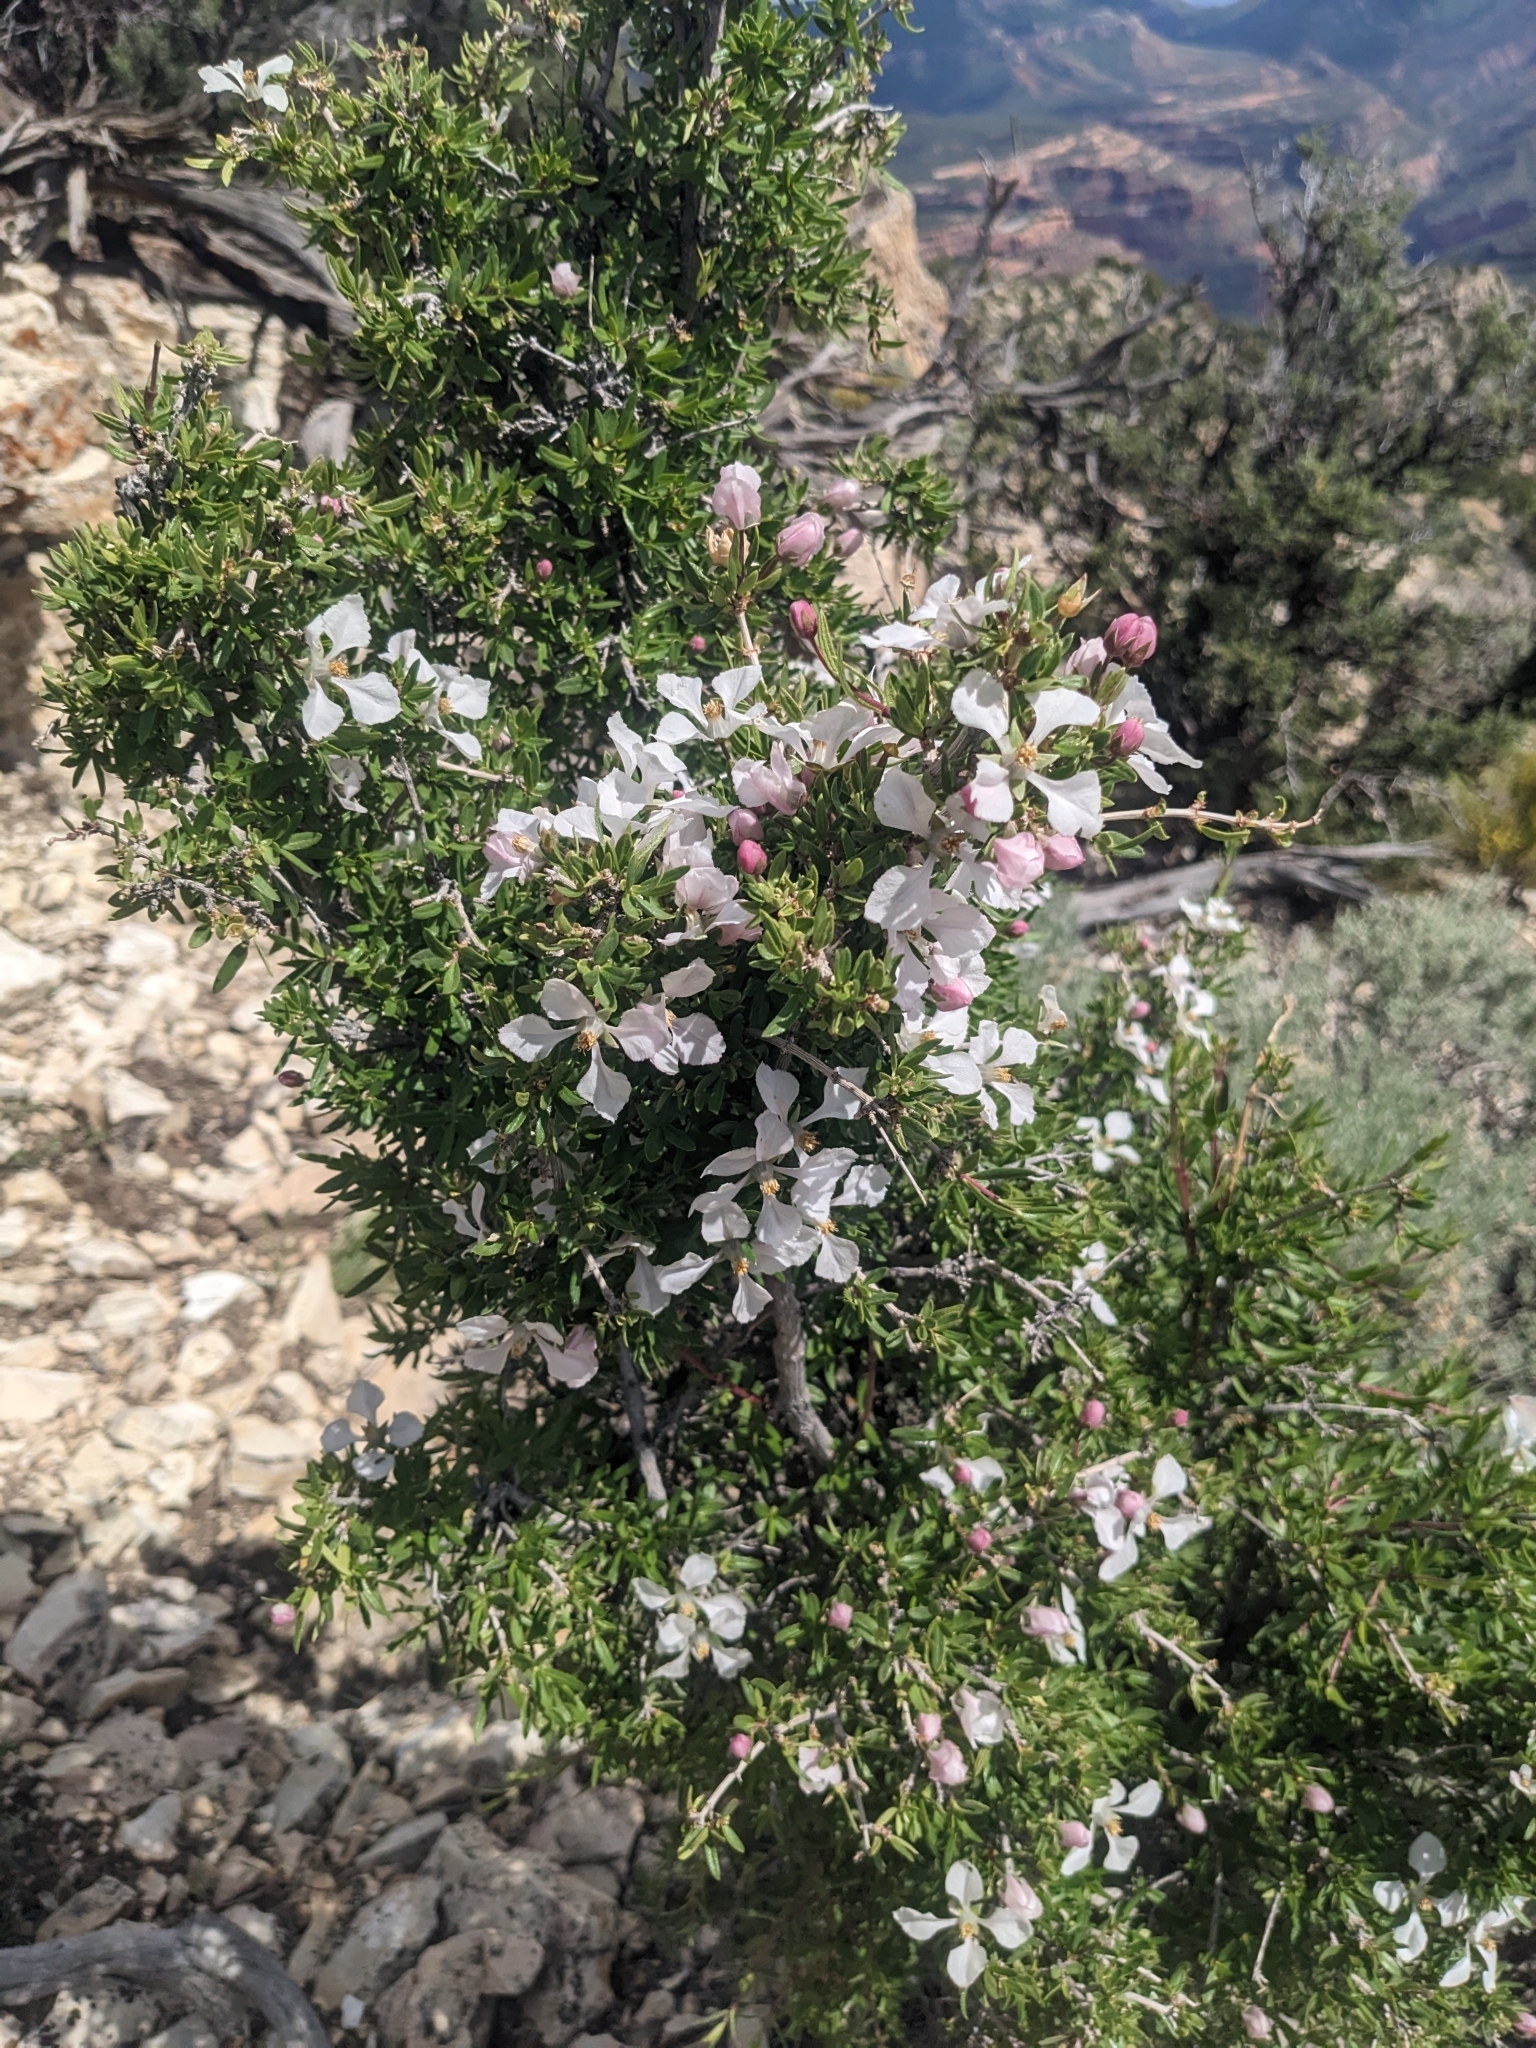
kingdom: Plantae
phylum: Tracheophyta
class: Magnoliopsida
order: Cornales
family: Hydrangeaceae
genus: Fendlera
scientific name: Fendlera rupicola
